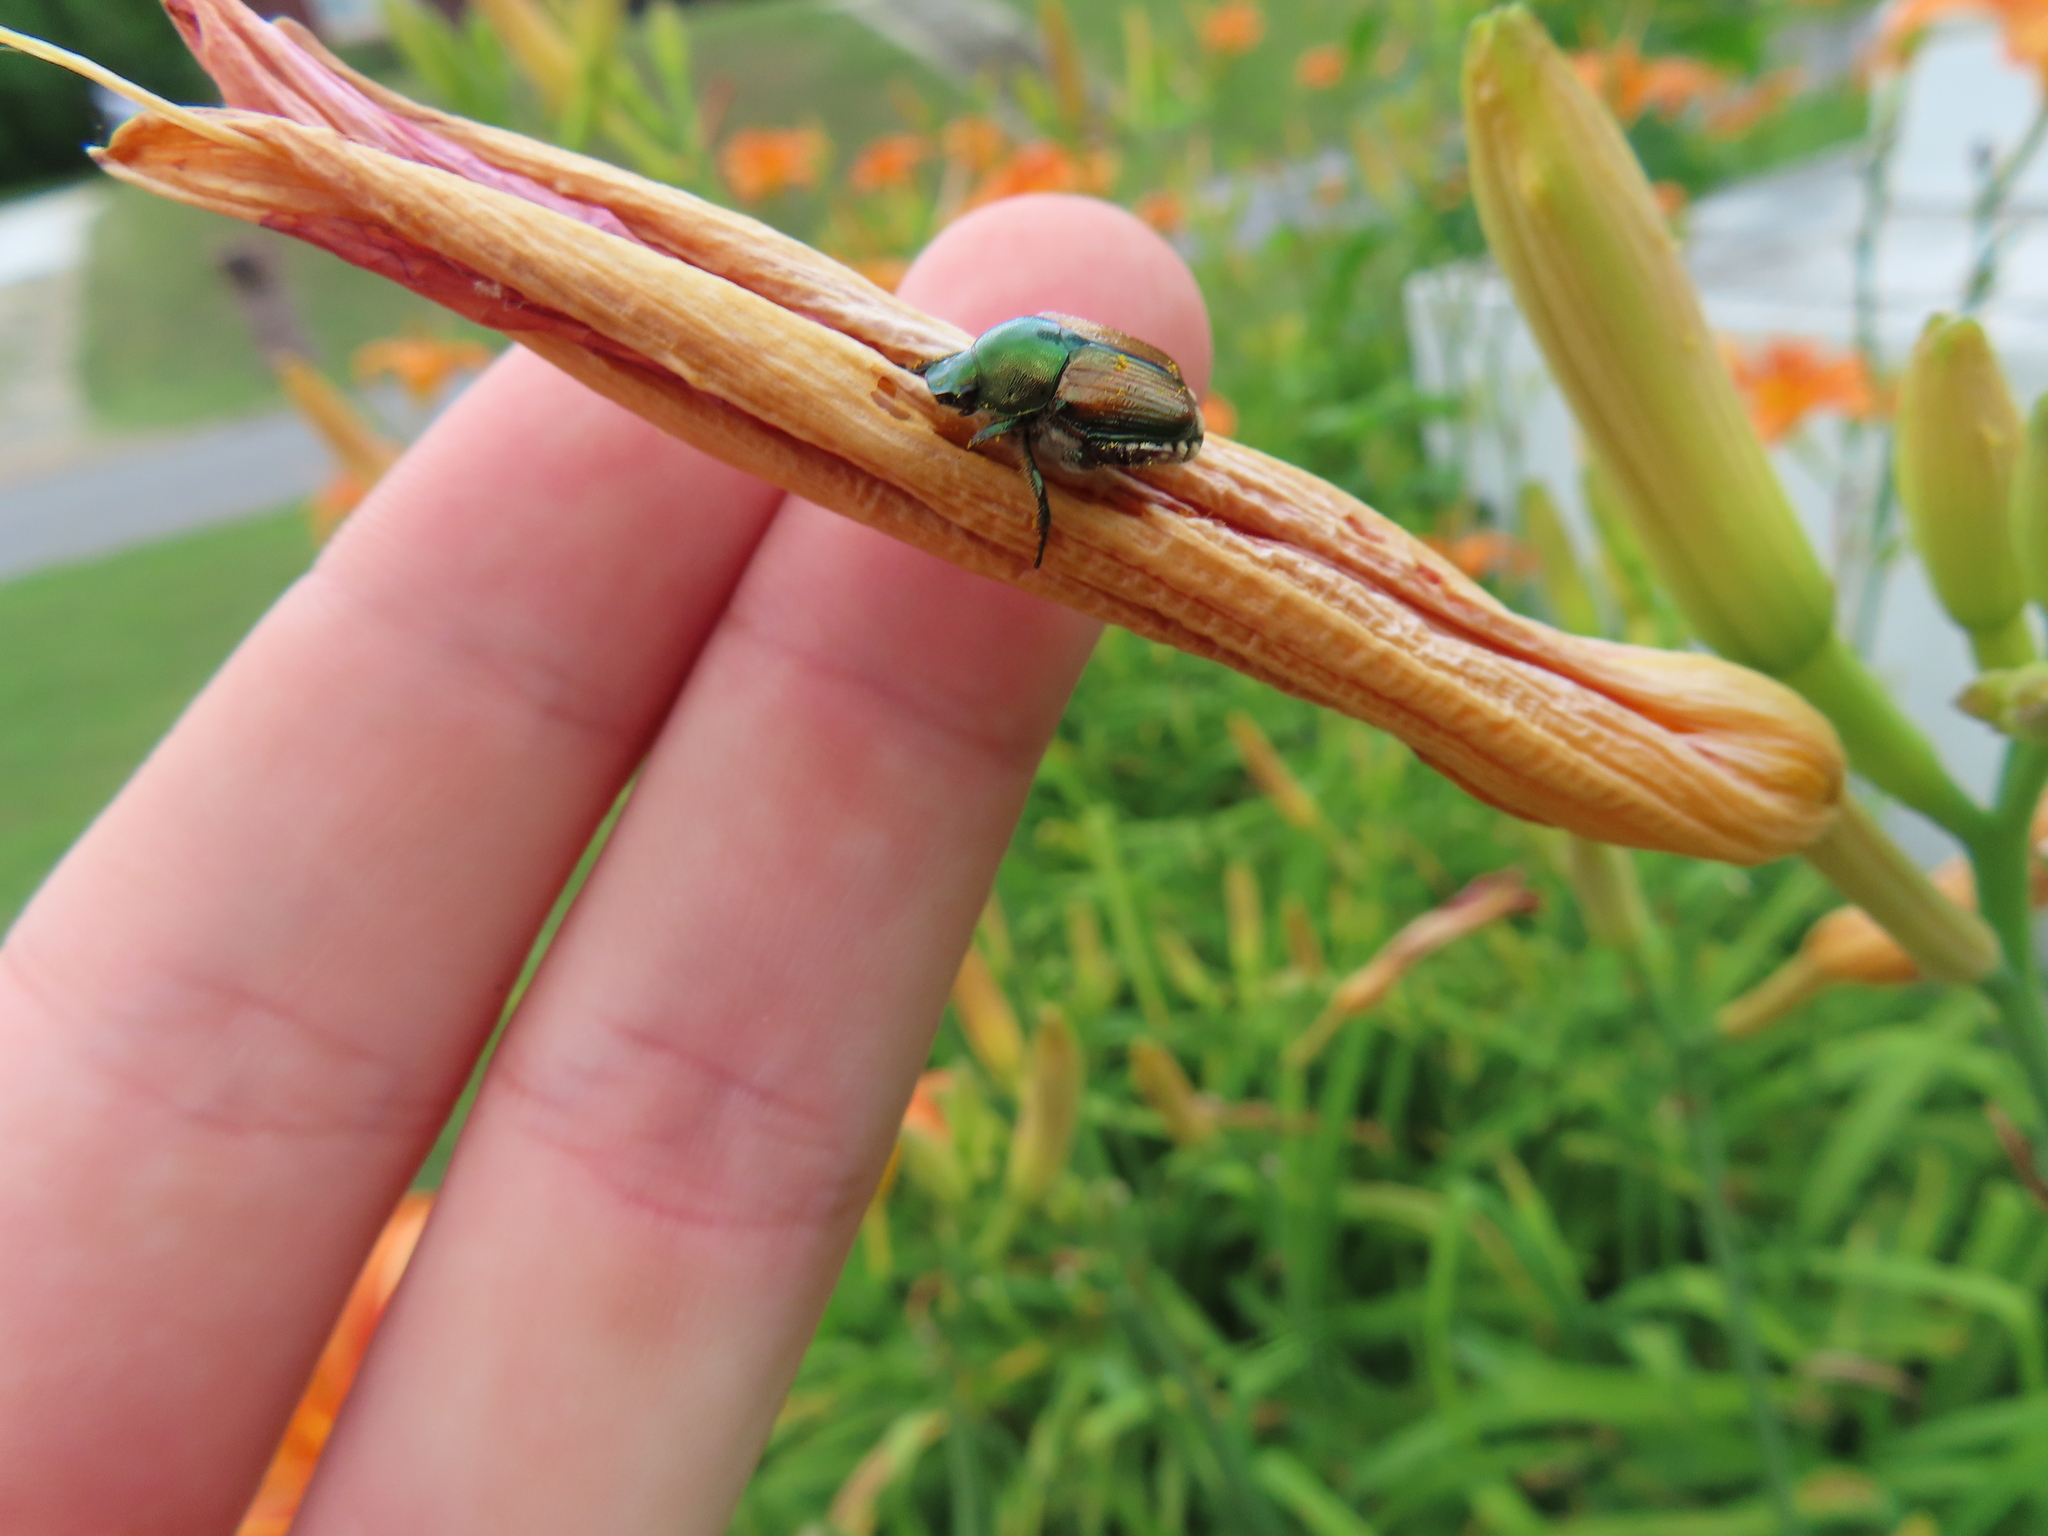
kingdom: Animalia
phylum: Arthropoda
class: Insecta
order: Coleoptera
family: Scarabaeidae
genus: Popillia
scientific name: Popillia japonica
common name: Japanese beetle
